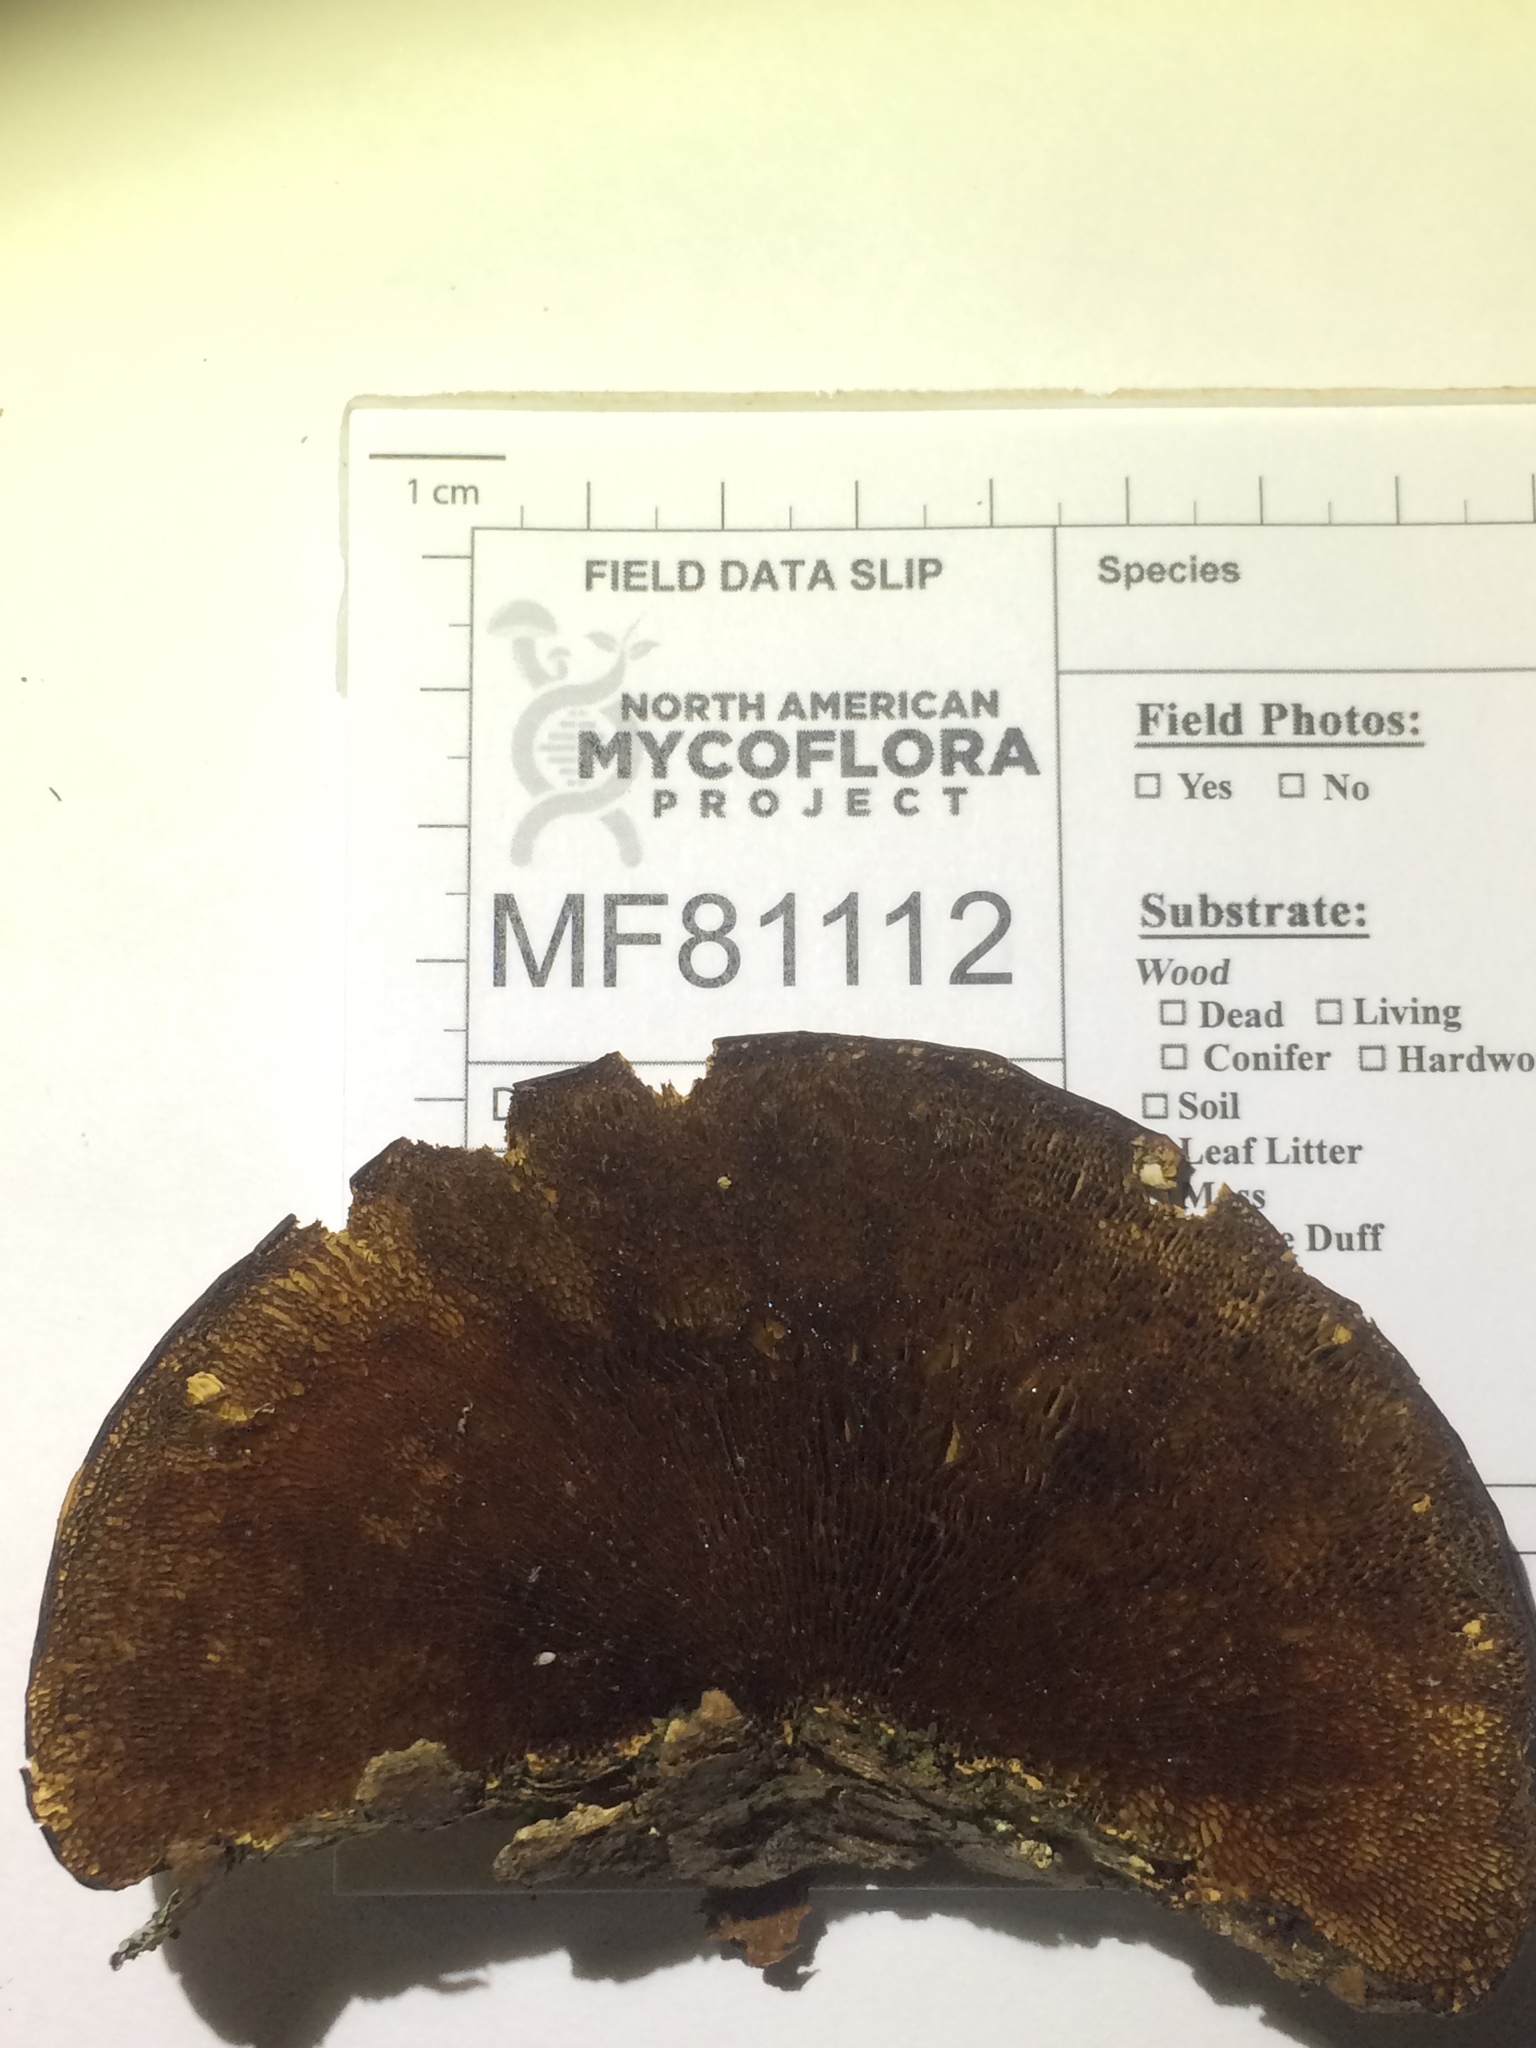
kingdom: Fungi
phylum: Basidiomycota
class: Agaricomycetes
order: Polyporales
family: Polyporaceae
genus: Daedaleopsis
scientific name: Daedaleopsis confragosa
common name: Blushing bracket
